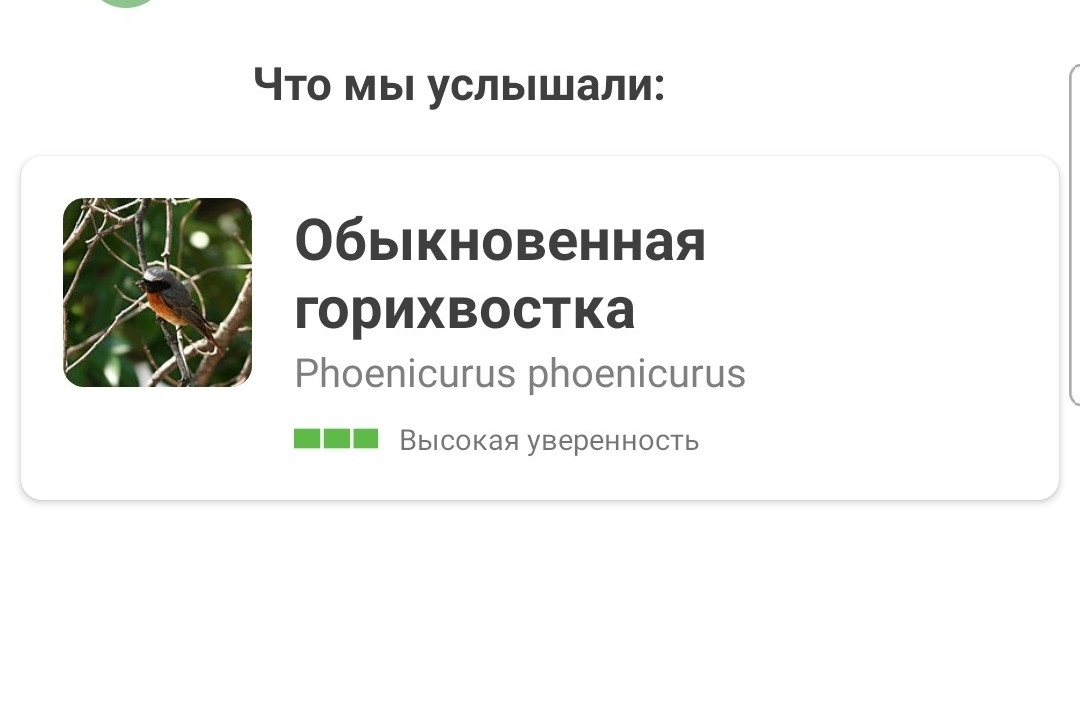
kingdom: Animalia
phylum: Chordata
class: Aves
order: Passeriformes
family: Muscicapidae
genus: Phoenicurus
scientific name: Phoenicurus phoenicurus
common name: Common redstart
